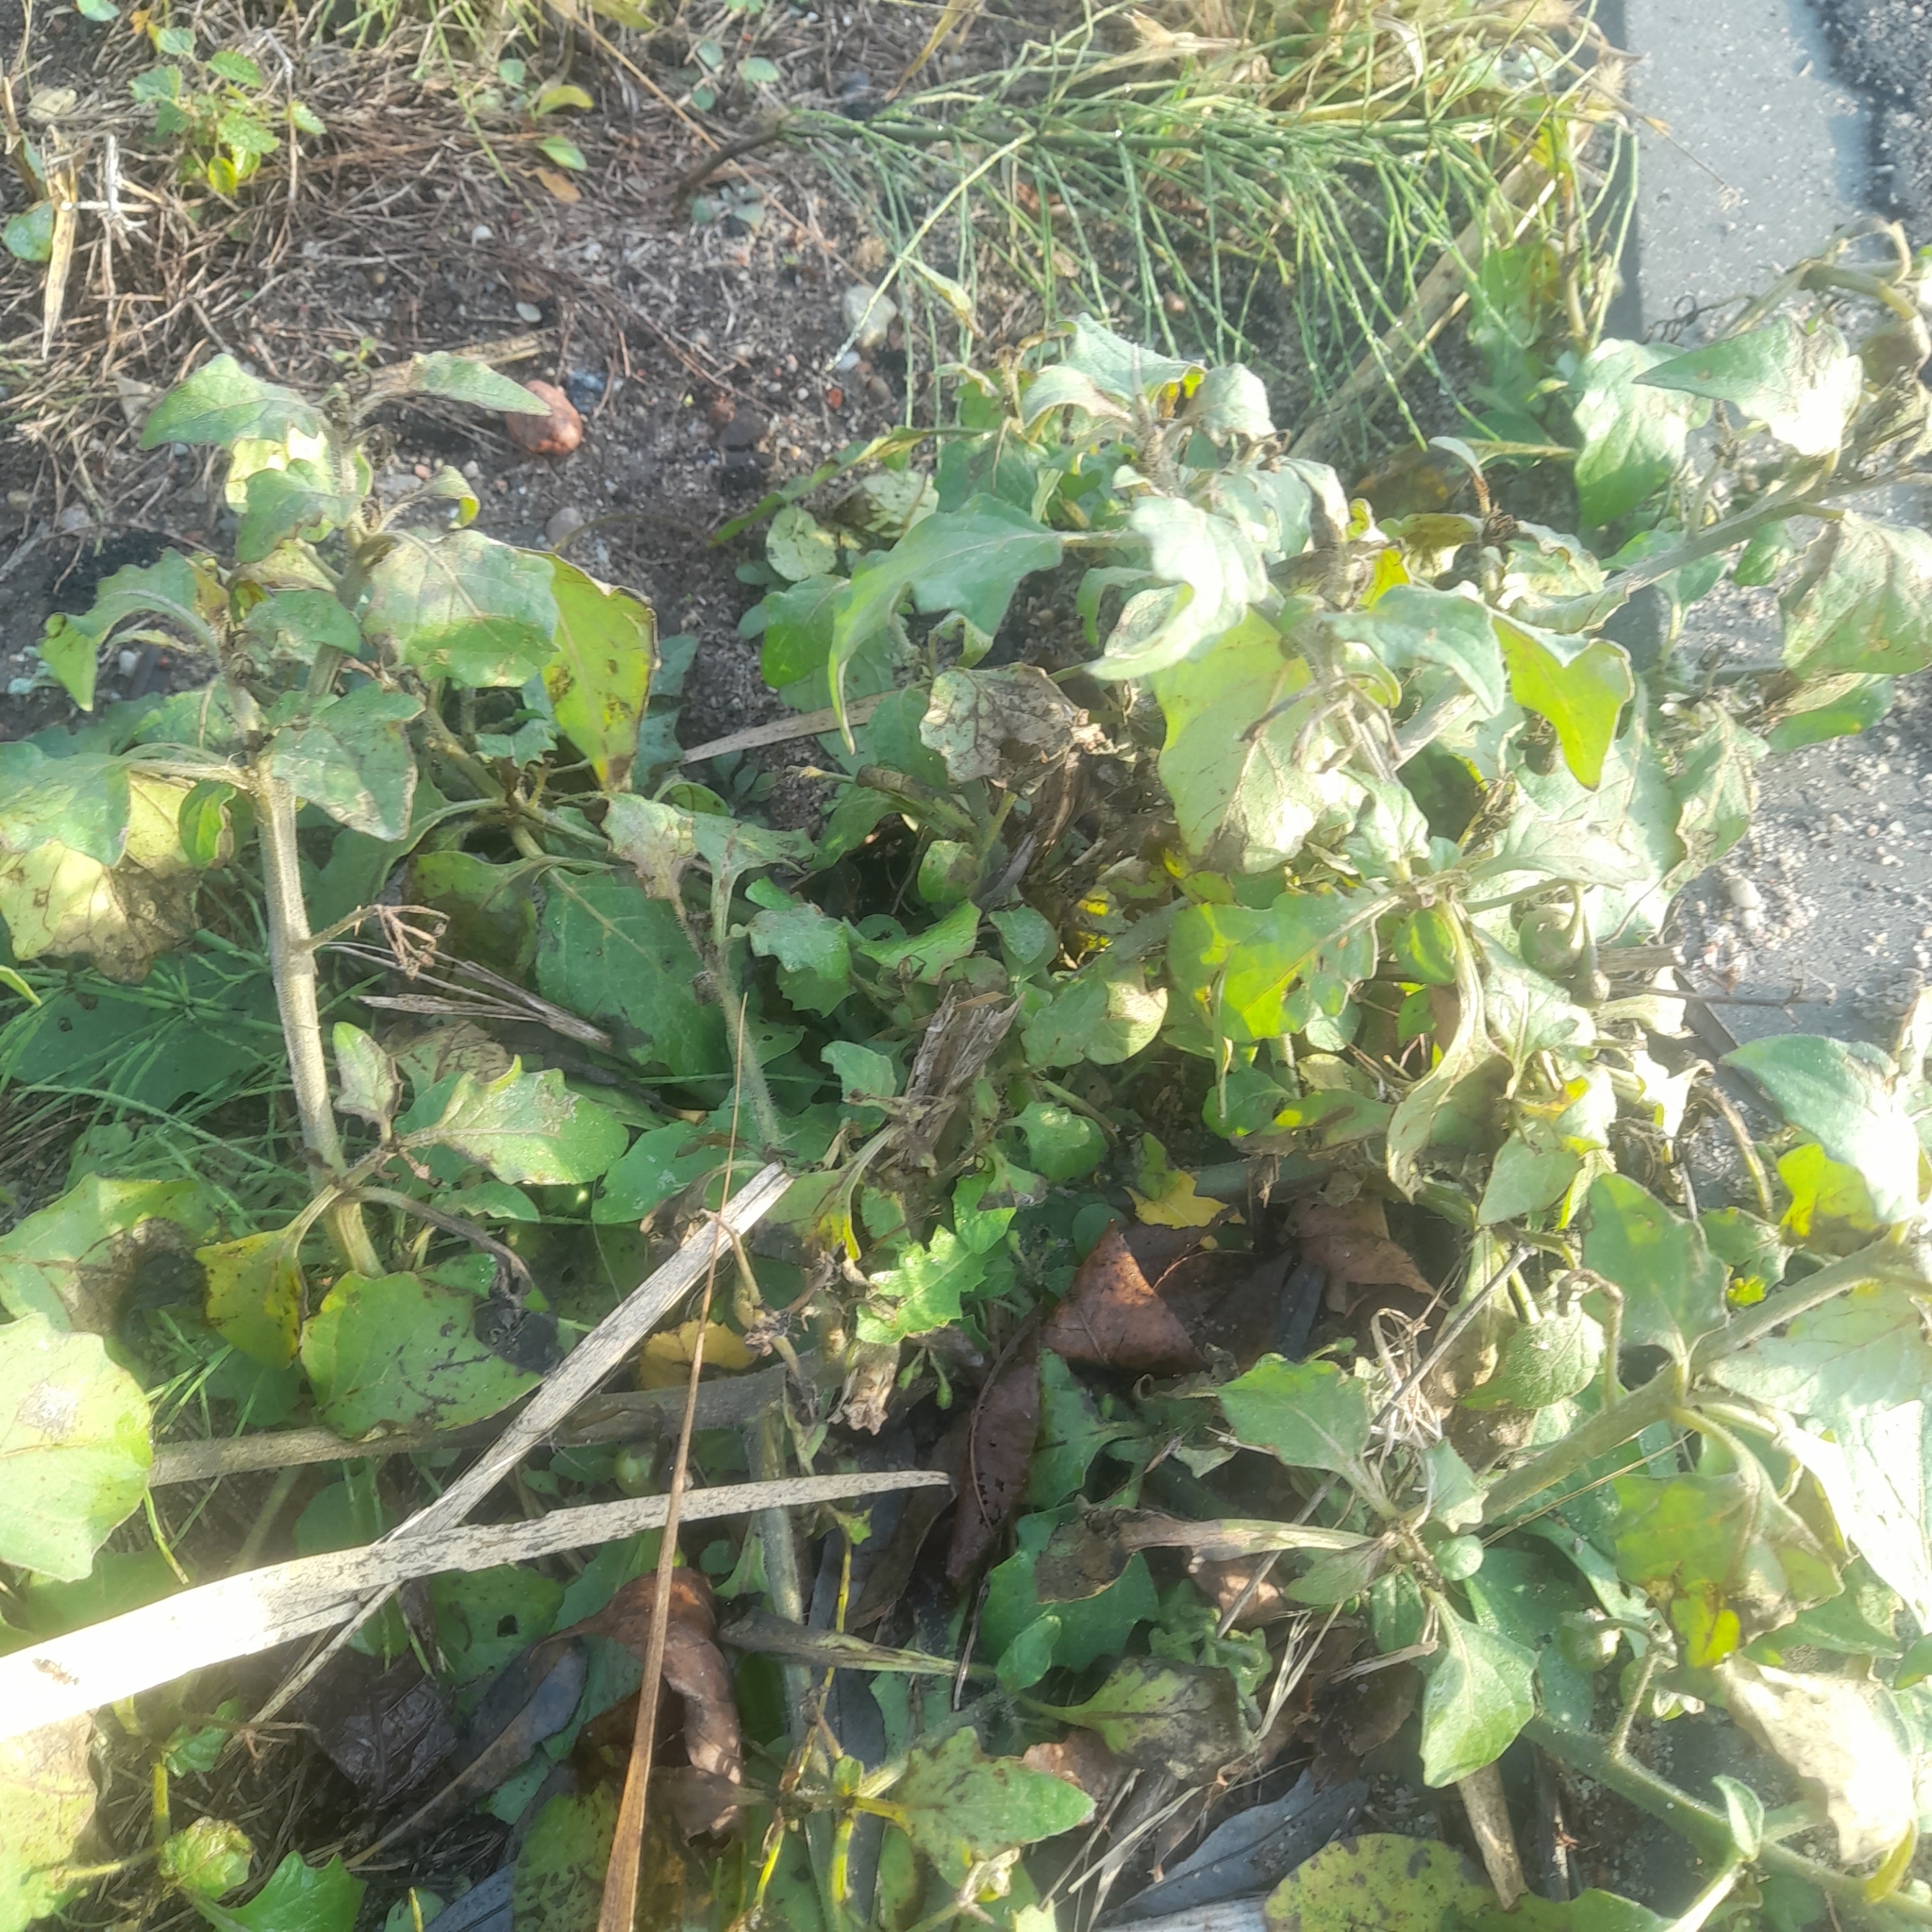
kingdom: Plantae
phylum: Tracheophyta
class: Magnoliopsida
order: Solanales
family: Solanaceae
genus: Solanum
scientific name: Solanum nigrum
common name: Black nightshade
